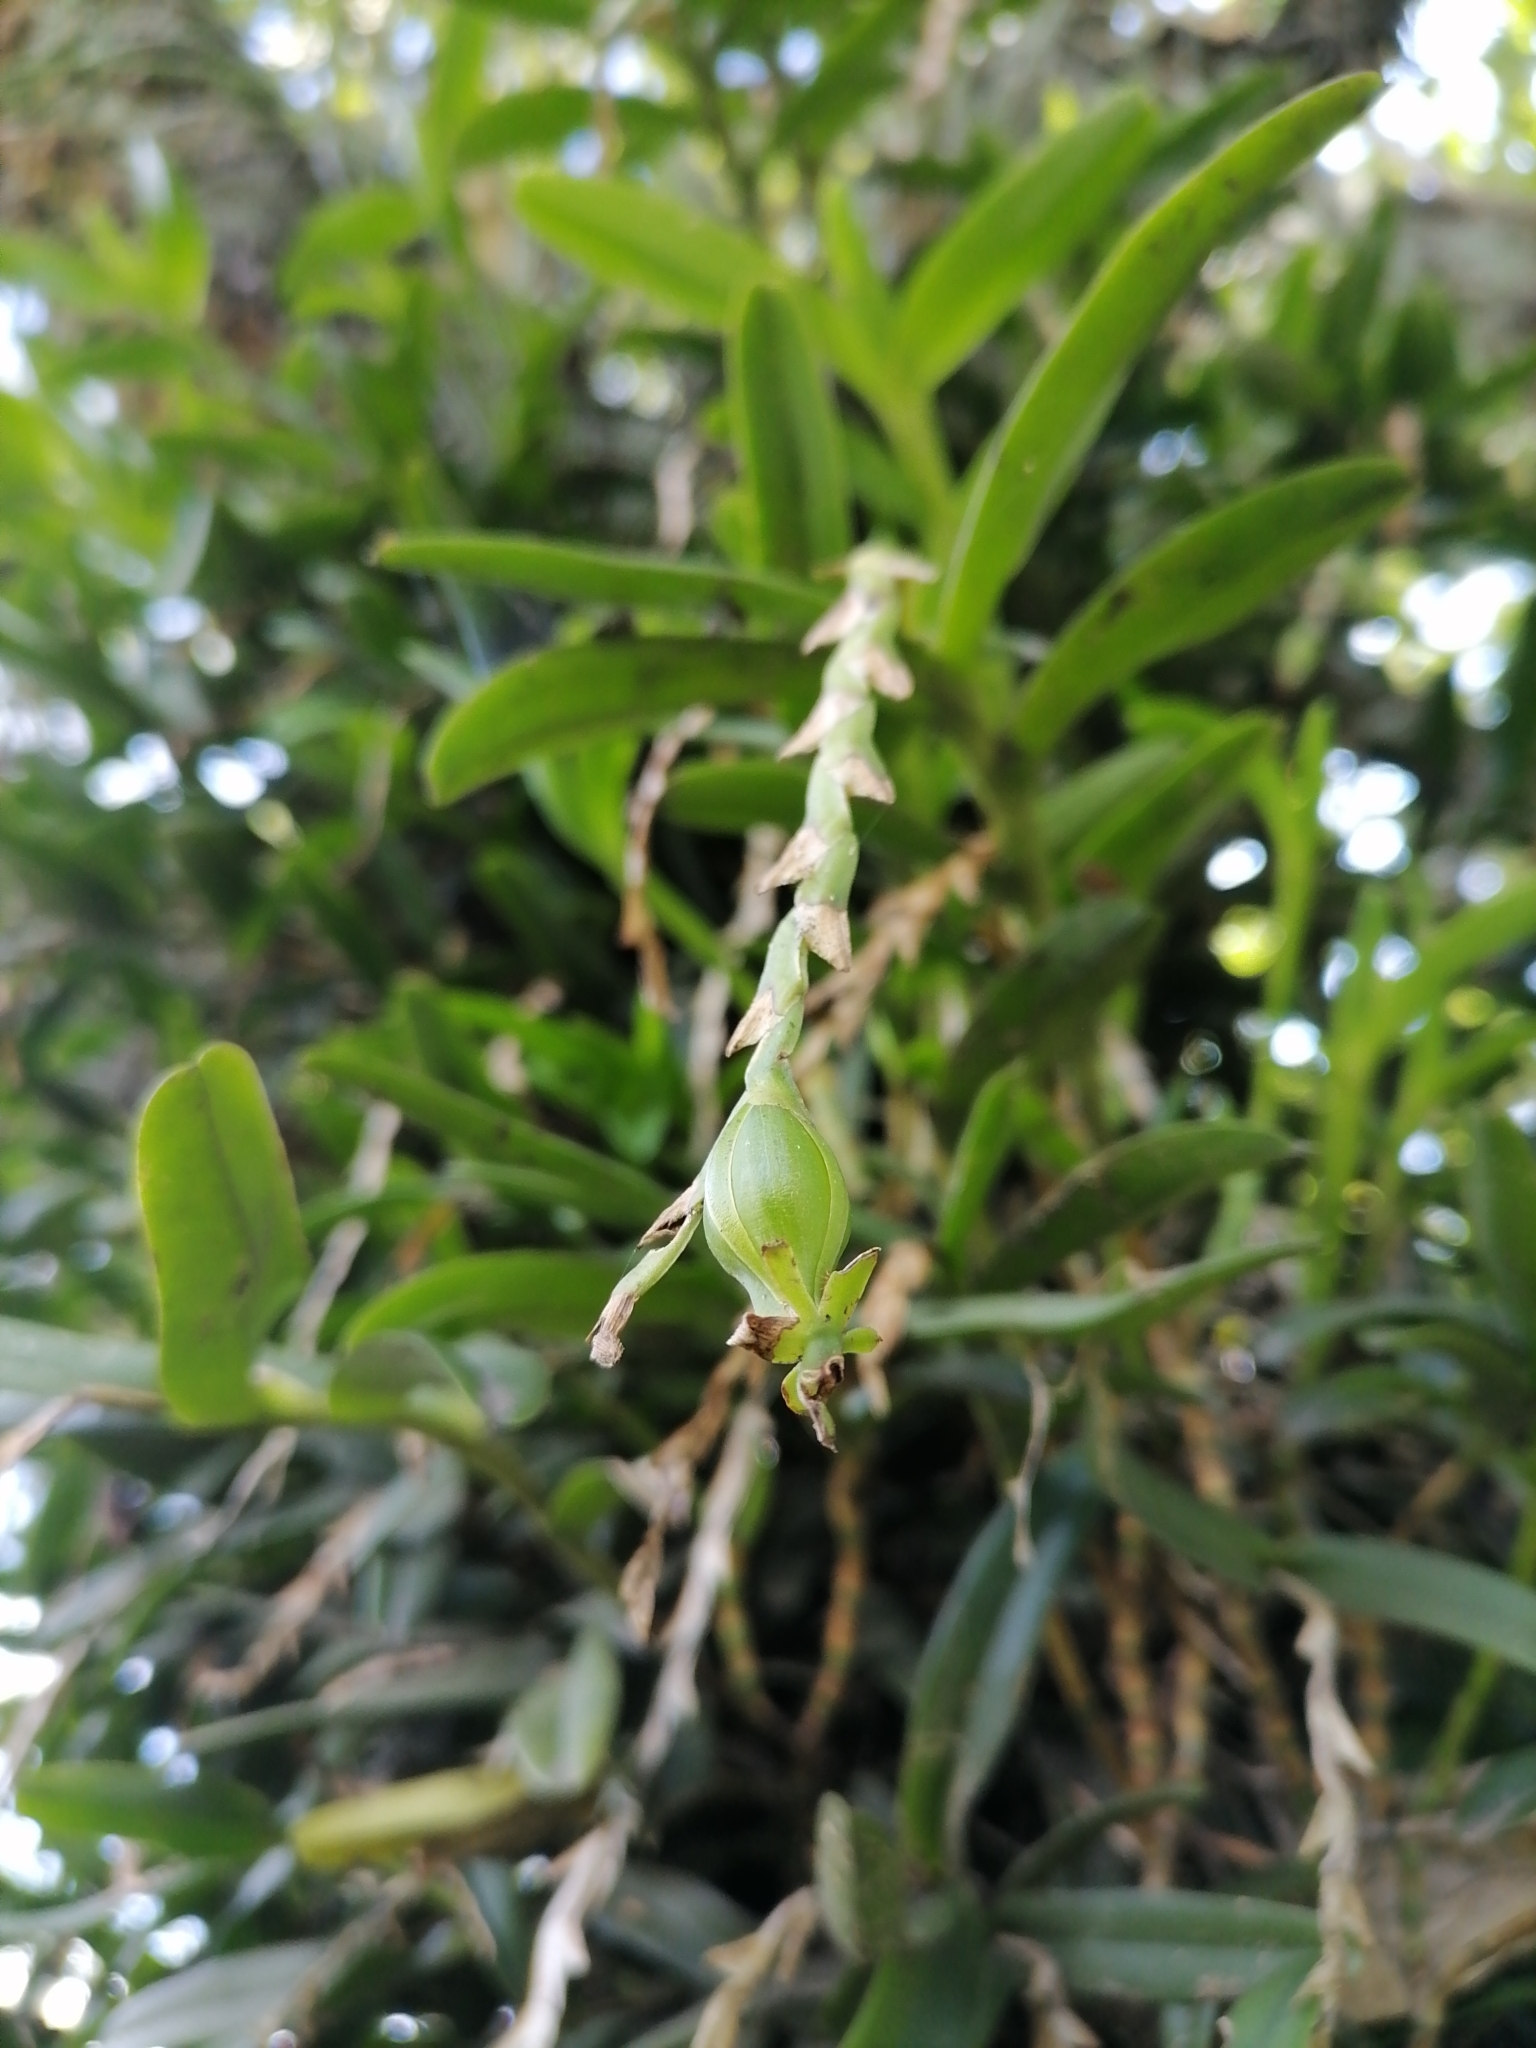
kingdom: Plantae
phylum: Tracheophyta
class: Liliopsida
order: Asparagales
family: Orchidaceae
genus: Epidendrum
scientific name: Epidendrum cardiophorum
